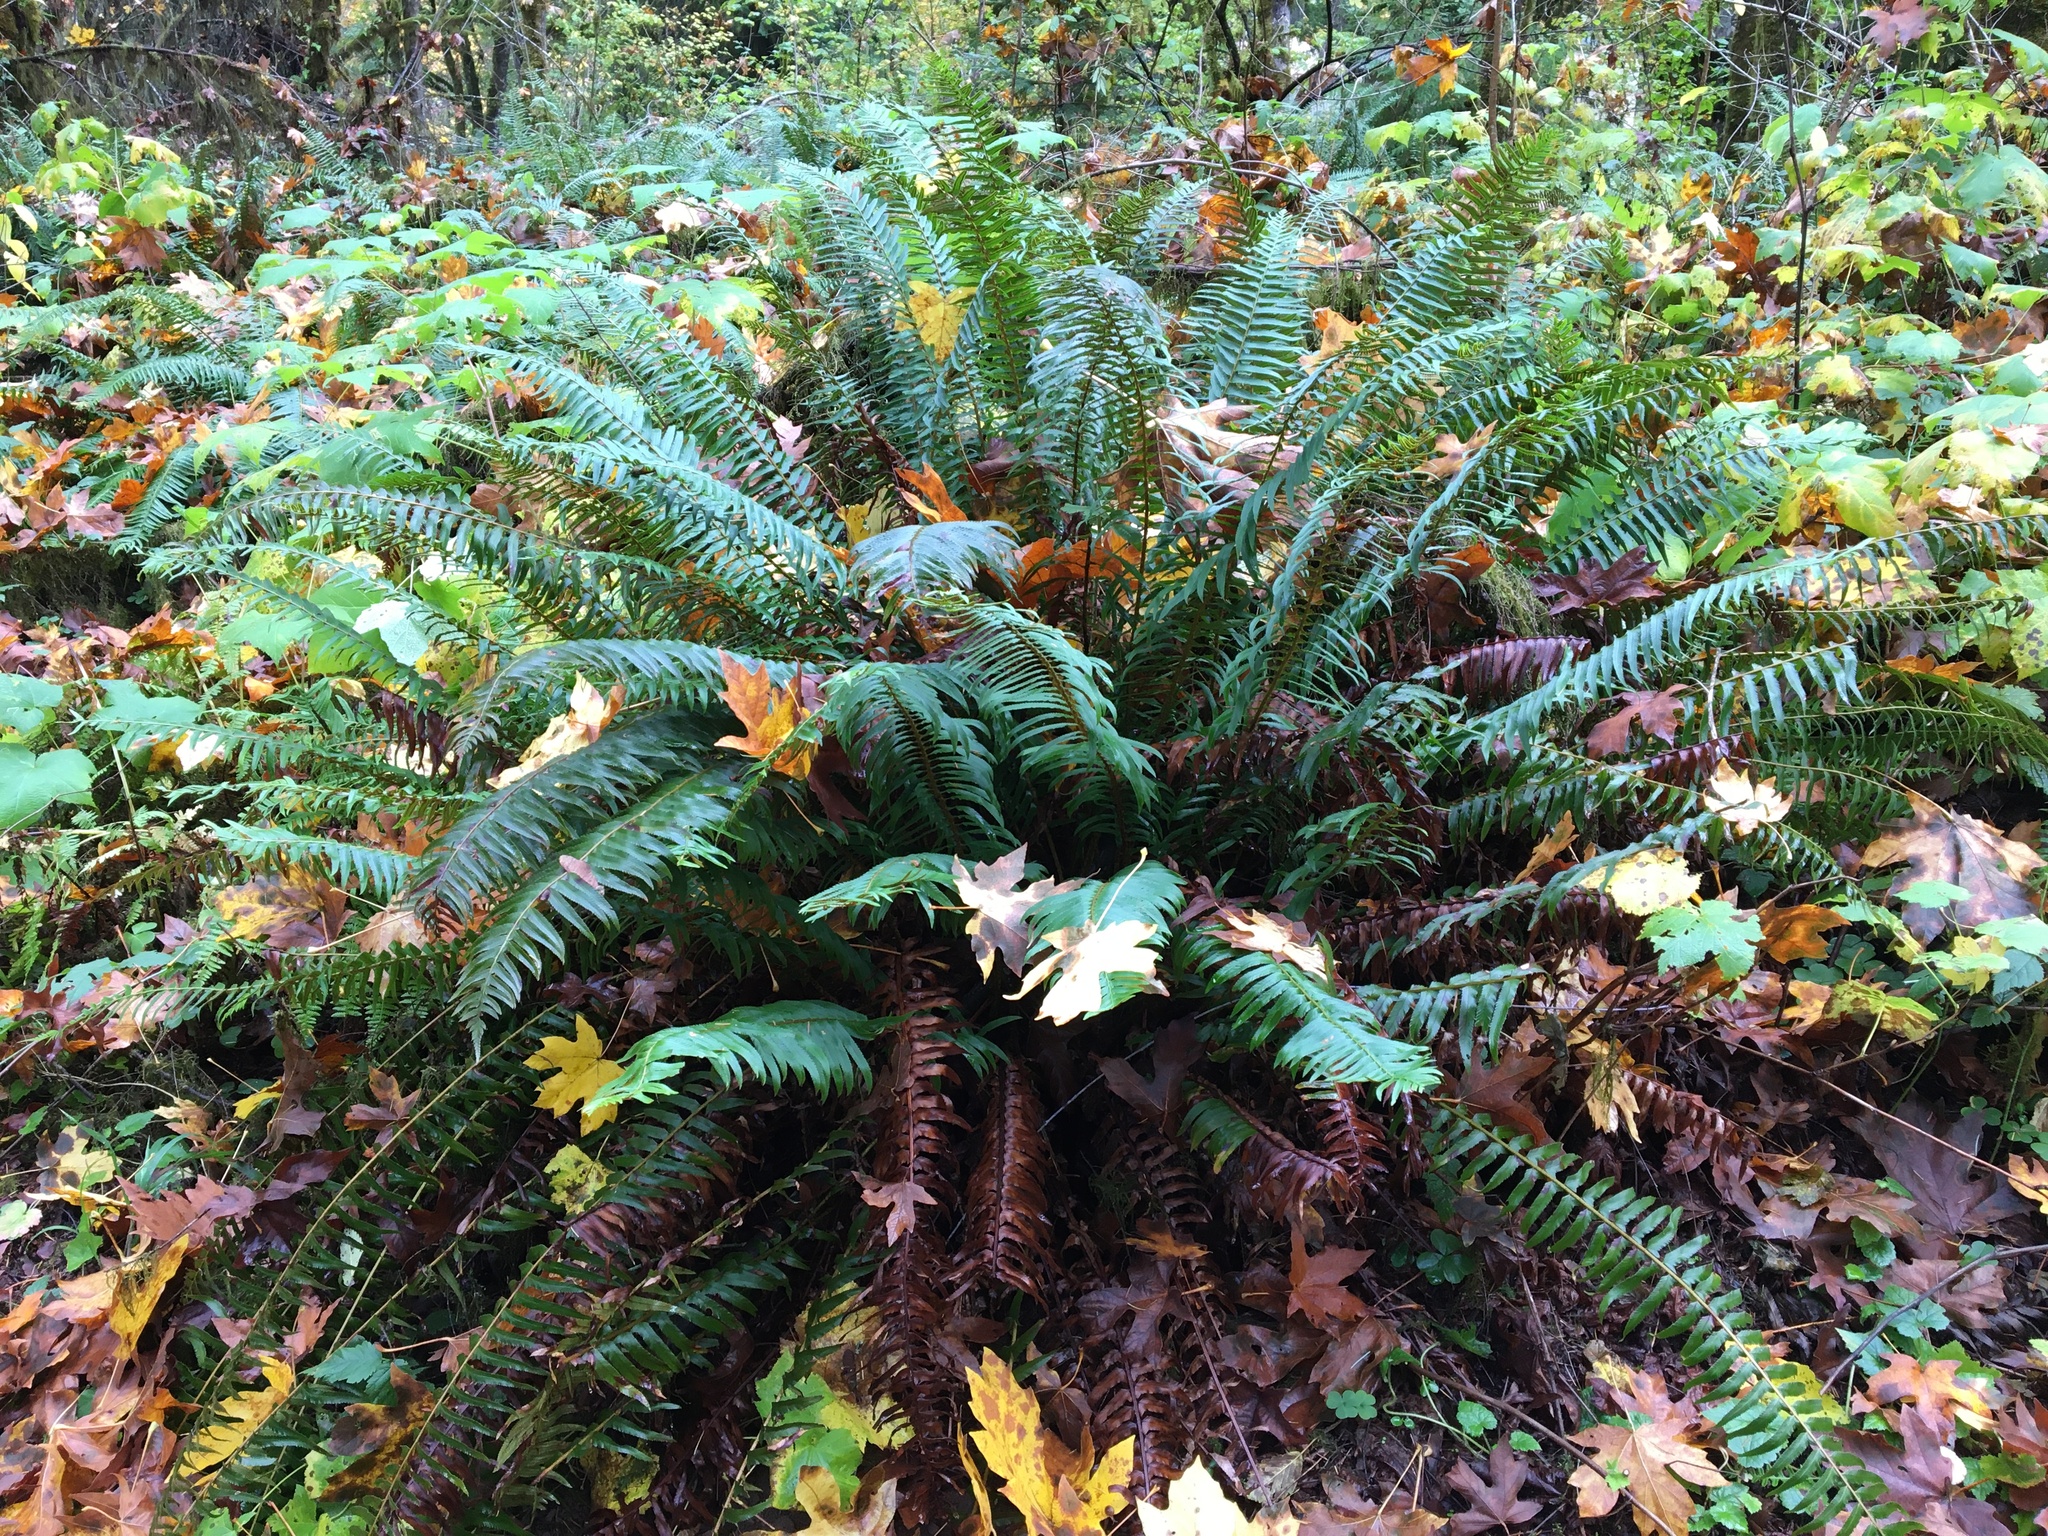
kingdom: Plantae
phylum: Tracheophyta
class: Polypodiopsida
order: Polypodiales
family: Dryopteridaceae
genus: Polystichum
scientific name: Polystichum munitum
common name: Western sword-fern
